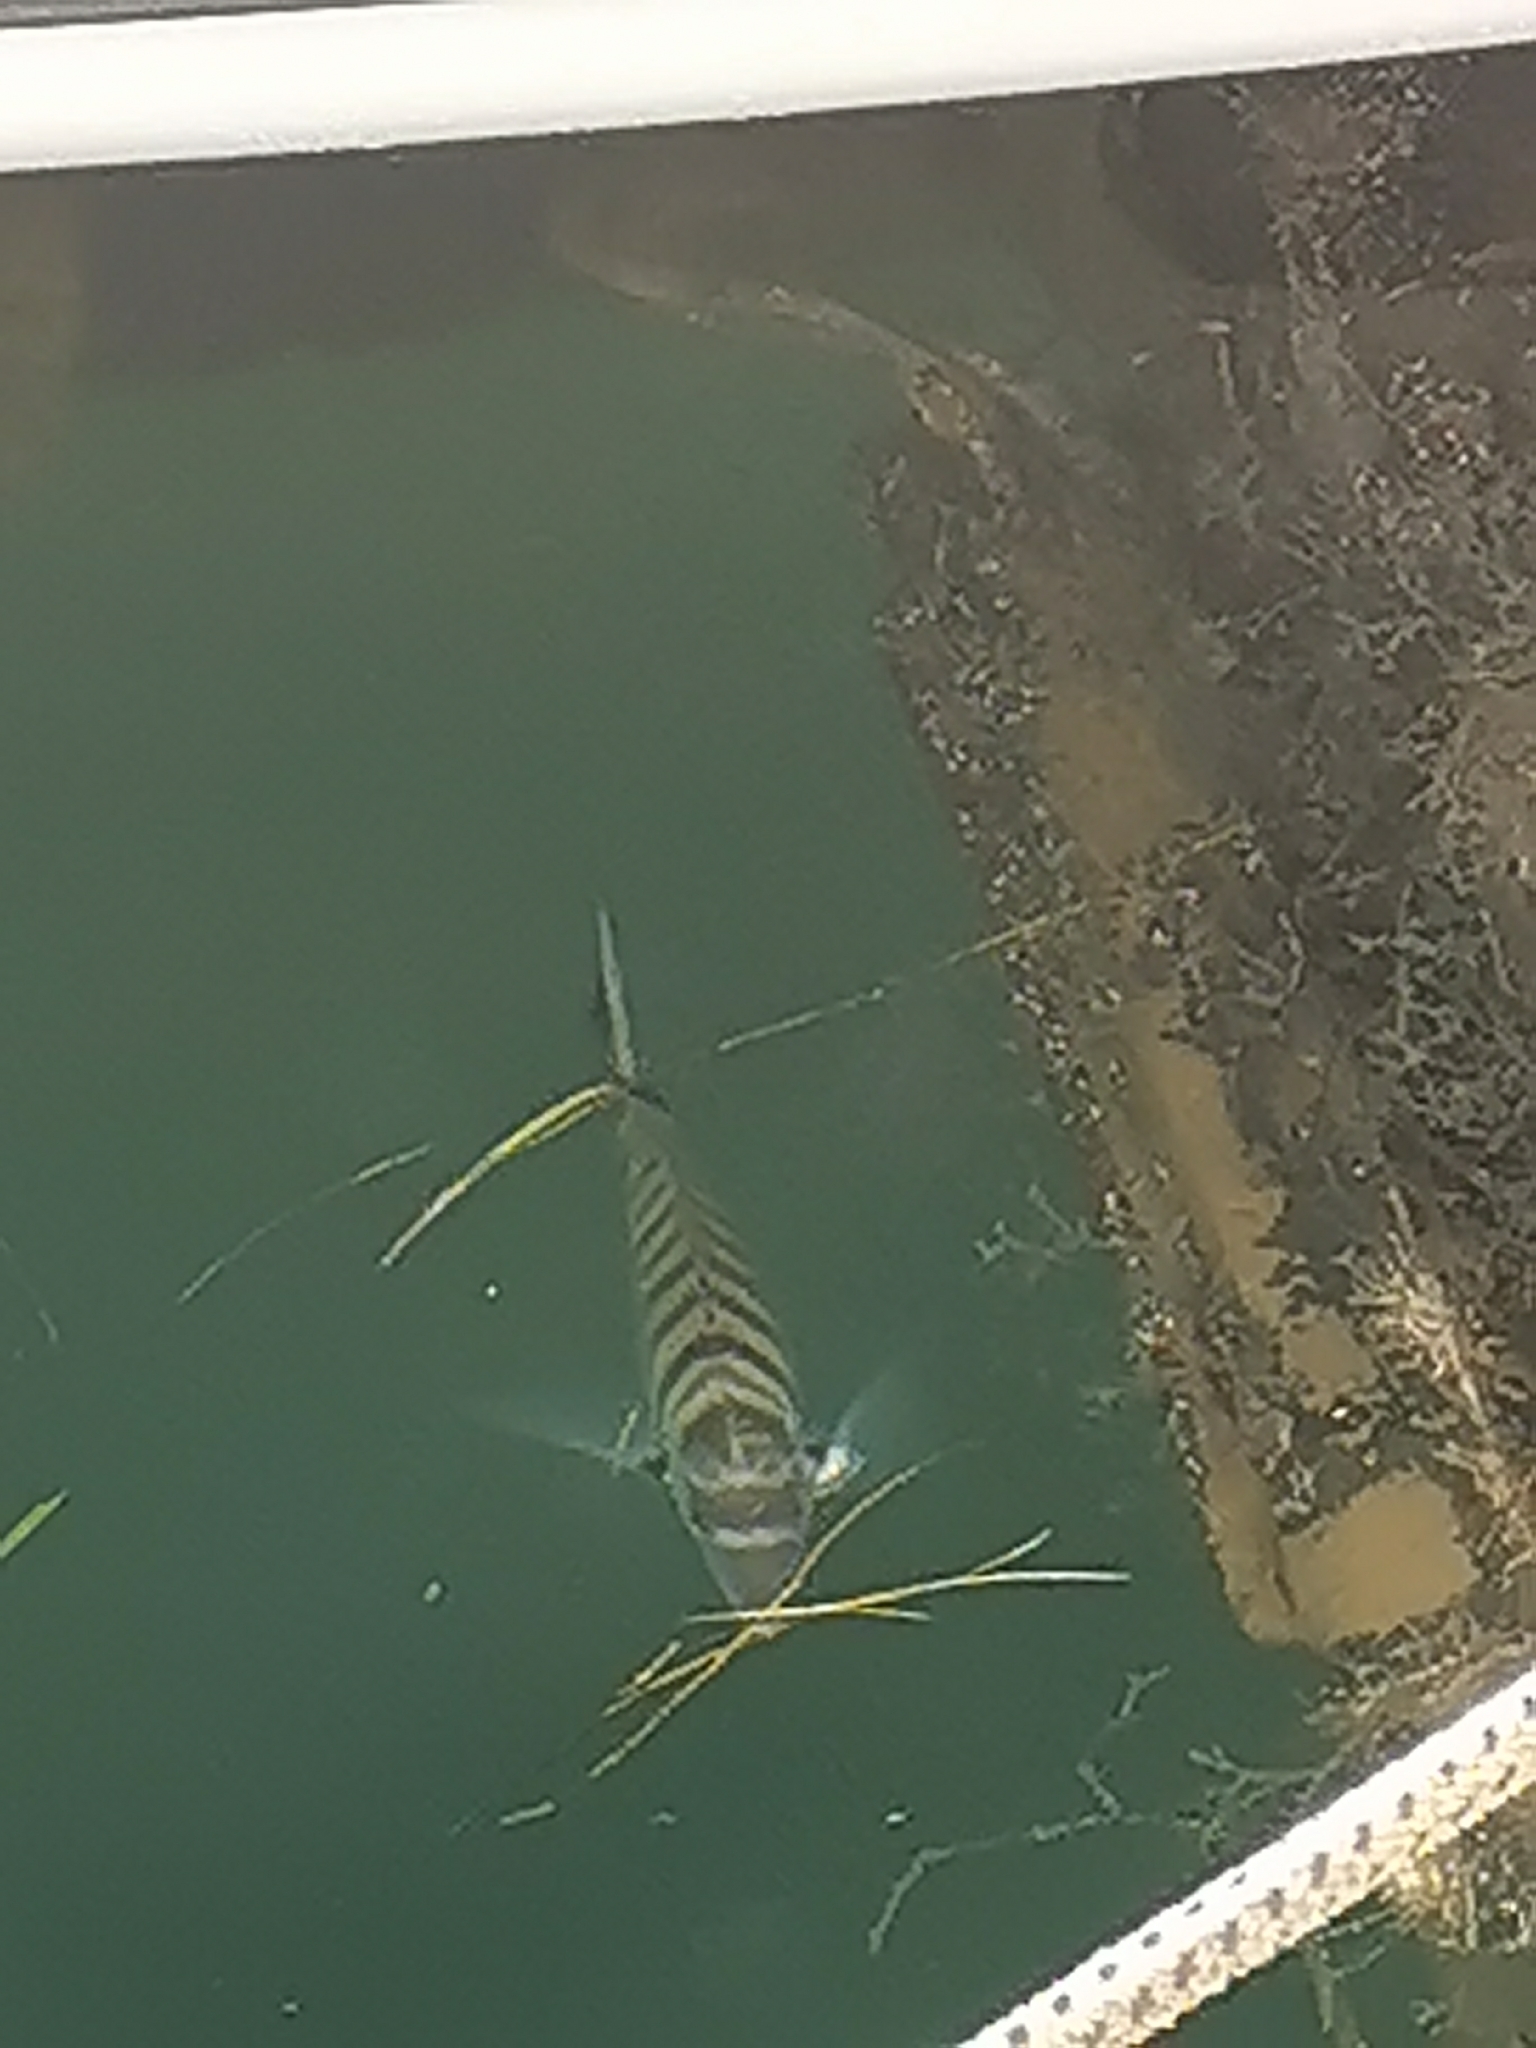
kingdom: Animalia
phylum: Chordata
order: Perciformes
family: Sparidae
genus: Diplodus
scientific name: Diplodus puntazzo
